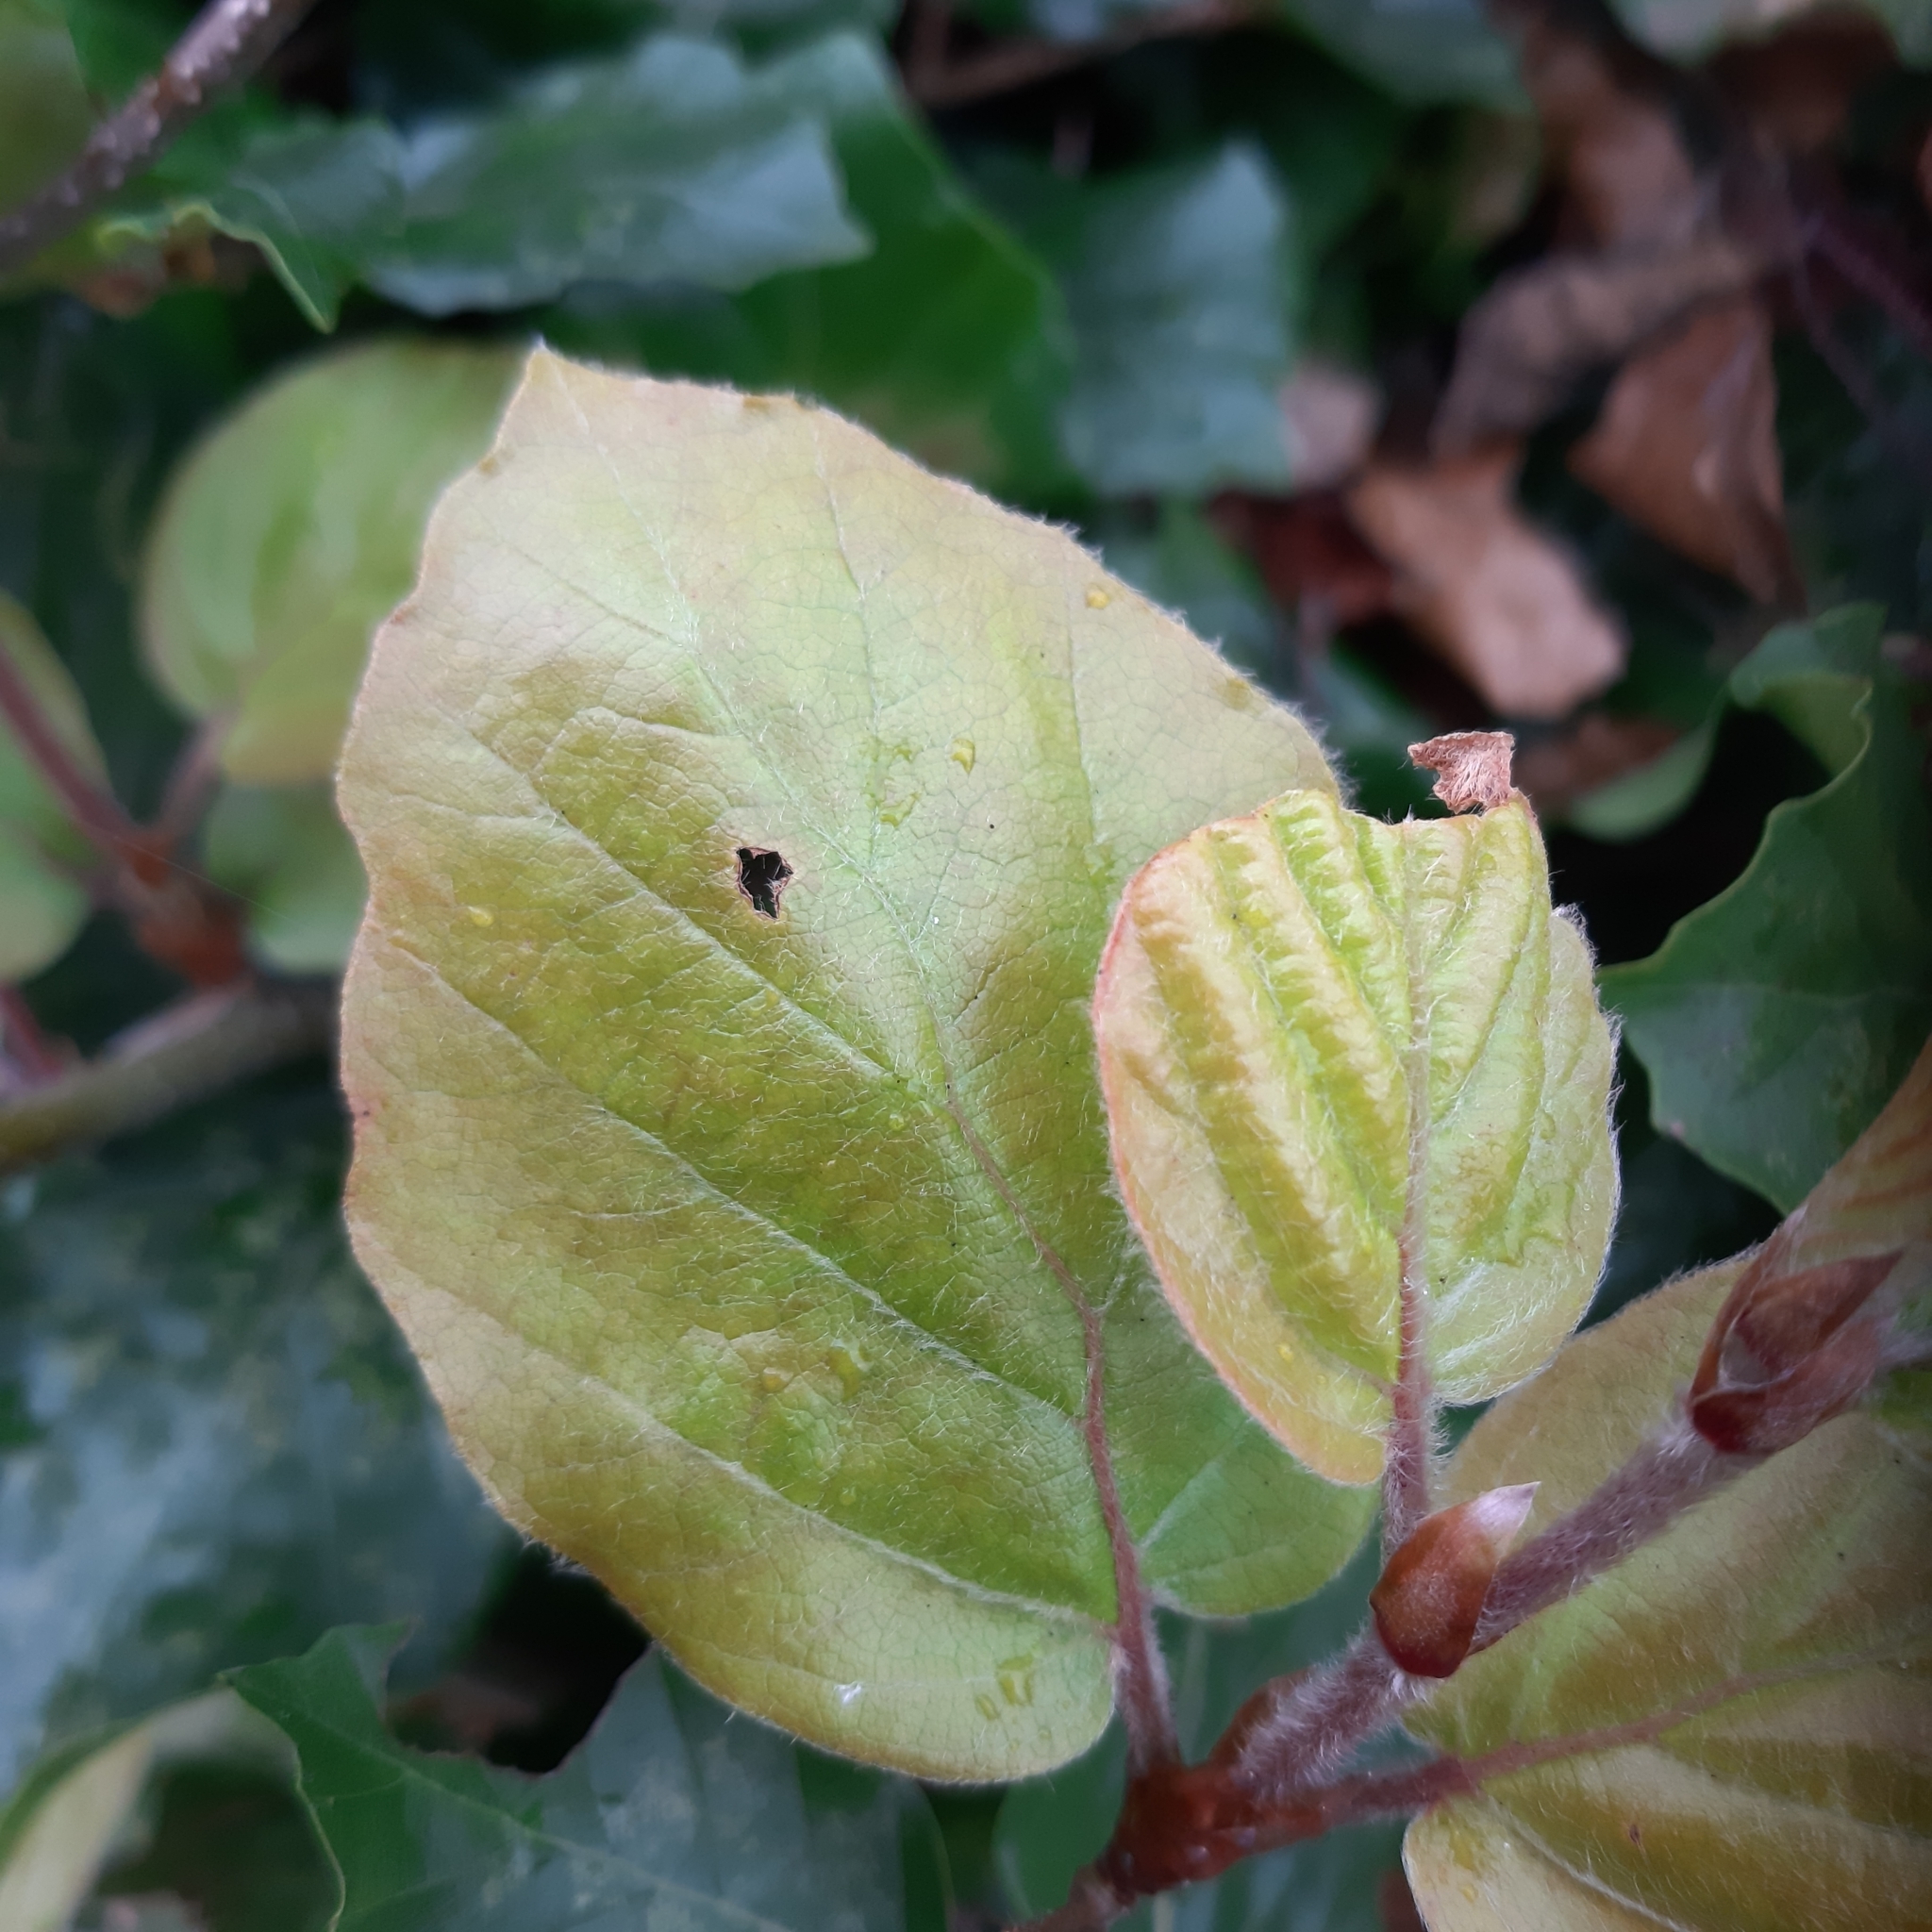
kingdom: Plantae
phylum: Tracheophyta
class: Magnoliopsida
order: Fagales
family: Fagaceae
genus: Fagus
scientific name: Fagus sylvatica
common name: Beech
